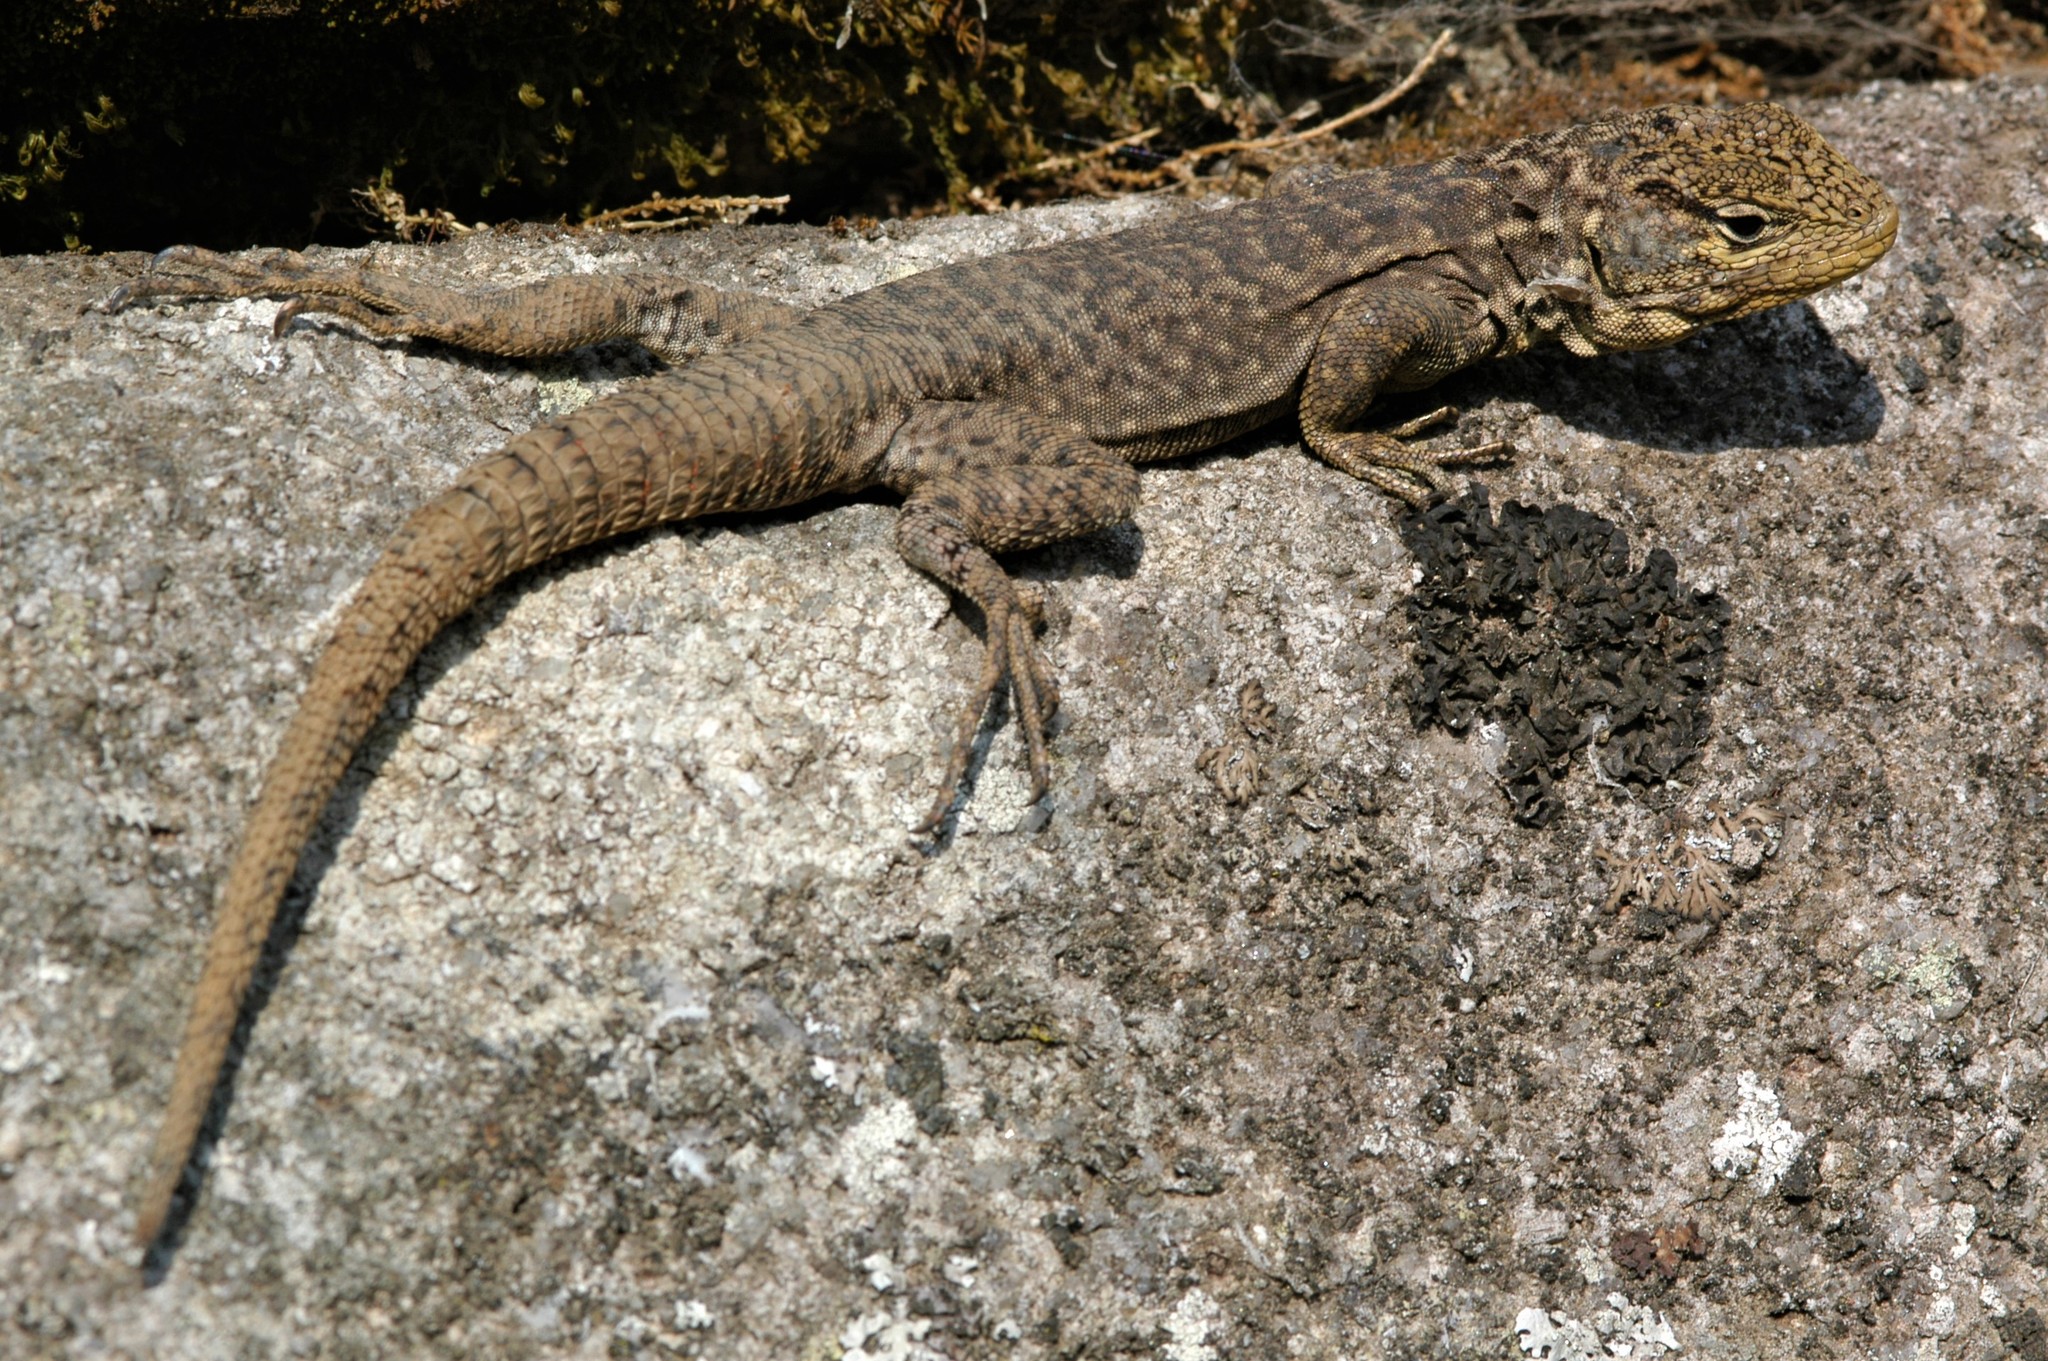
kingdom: Animalia
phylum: Chordata
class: Squamata
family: Tropiduridae
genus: Stenocercus
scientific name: Stenocercus crassicaudatus
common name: Spiny whorltail iguana
